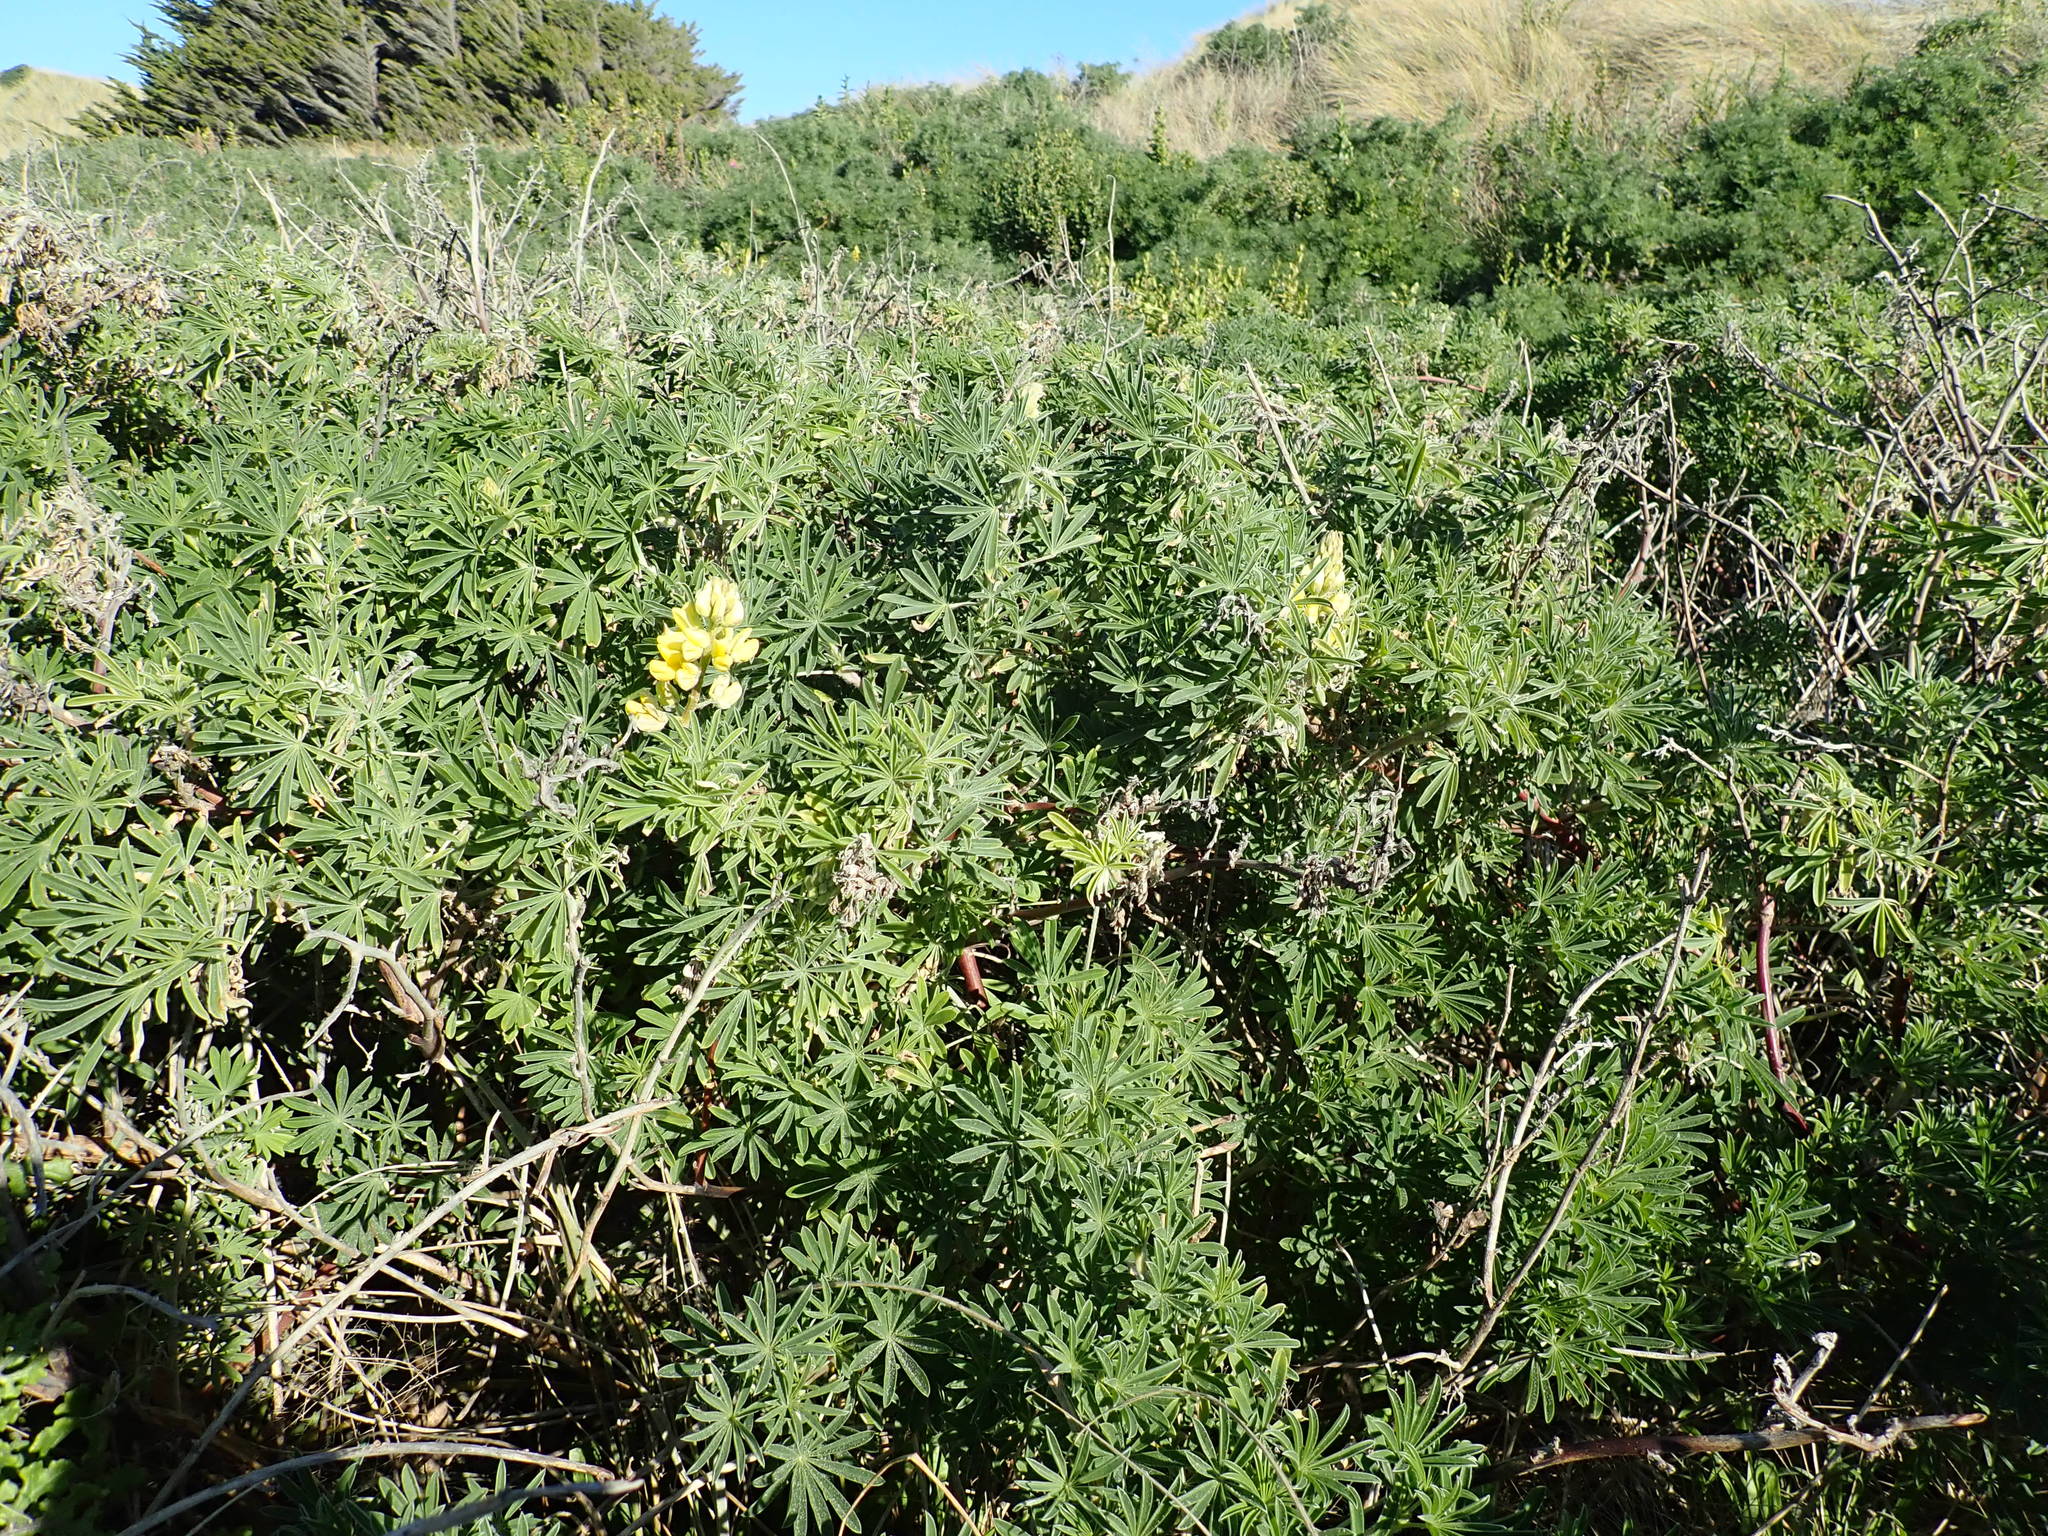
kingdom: Plantae
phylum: Tracheophyta
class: Magnoliopsida
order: Fabales
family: Fabaceae
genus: Lupinus
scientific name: Lupinus arboreus
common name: Yellow bush lupine
